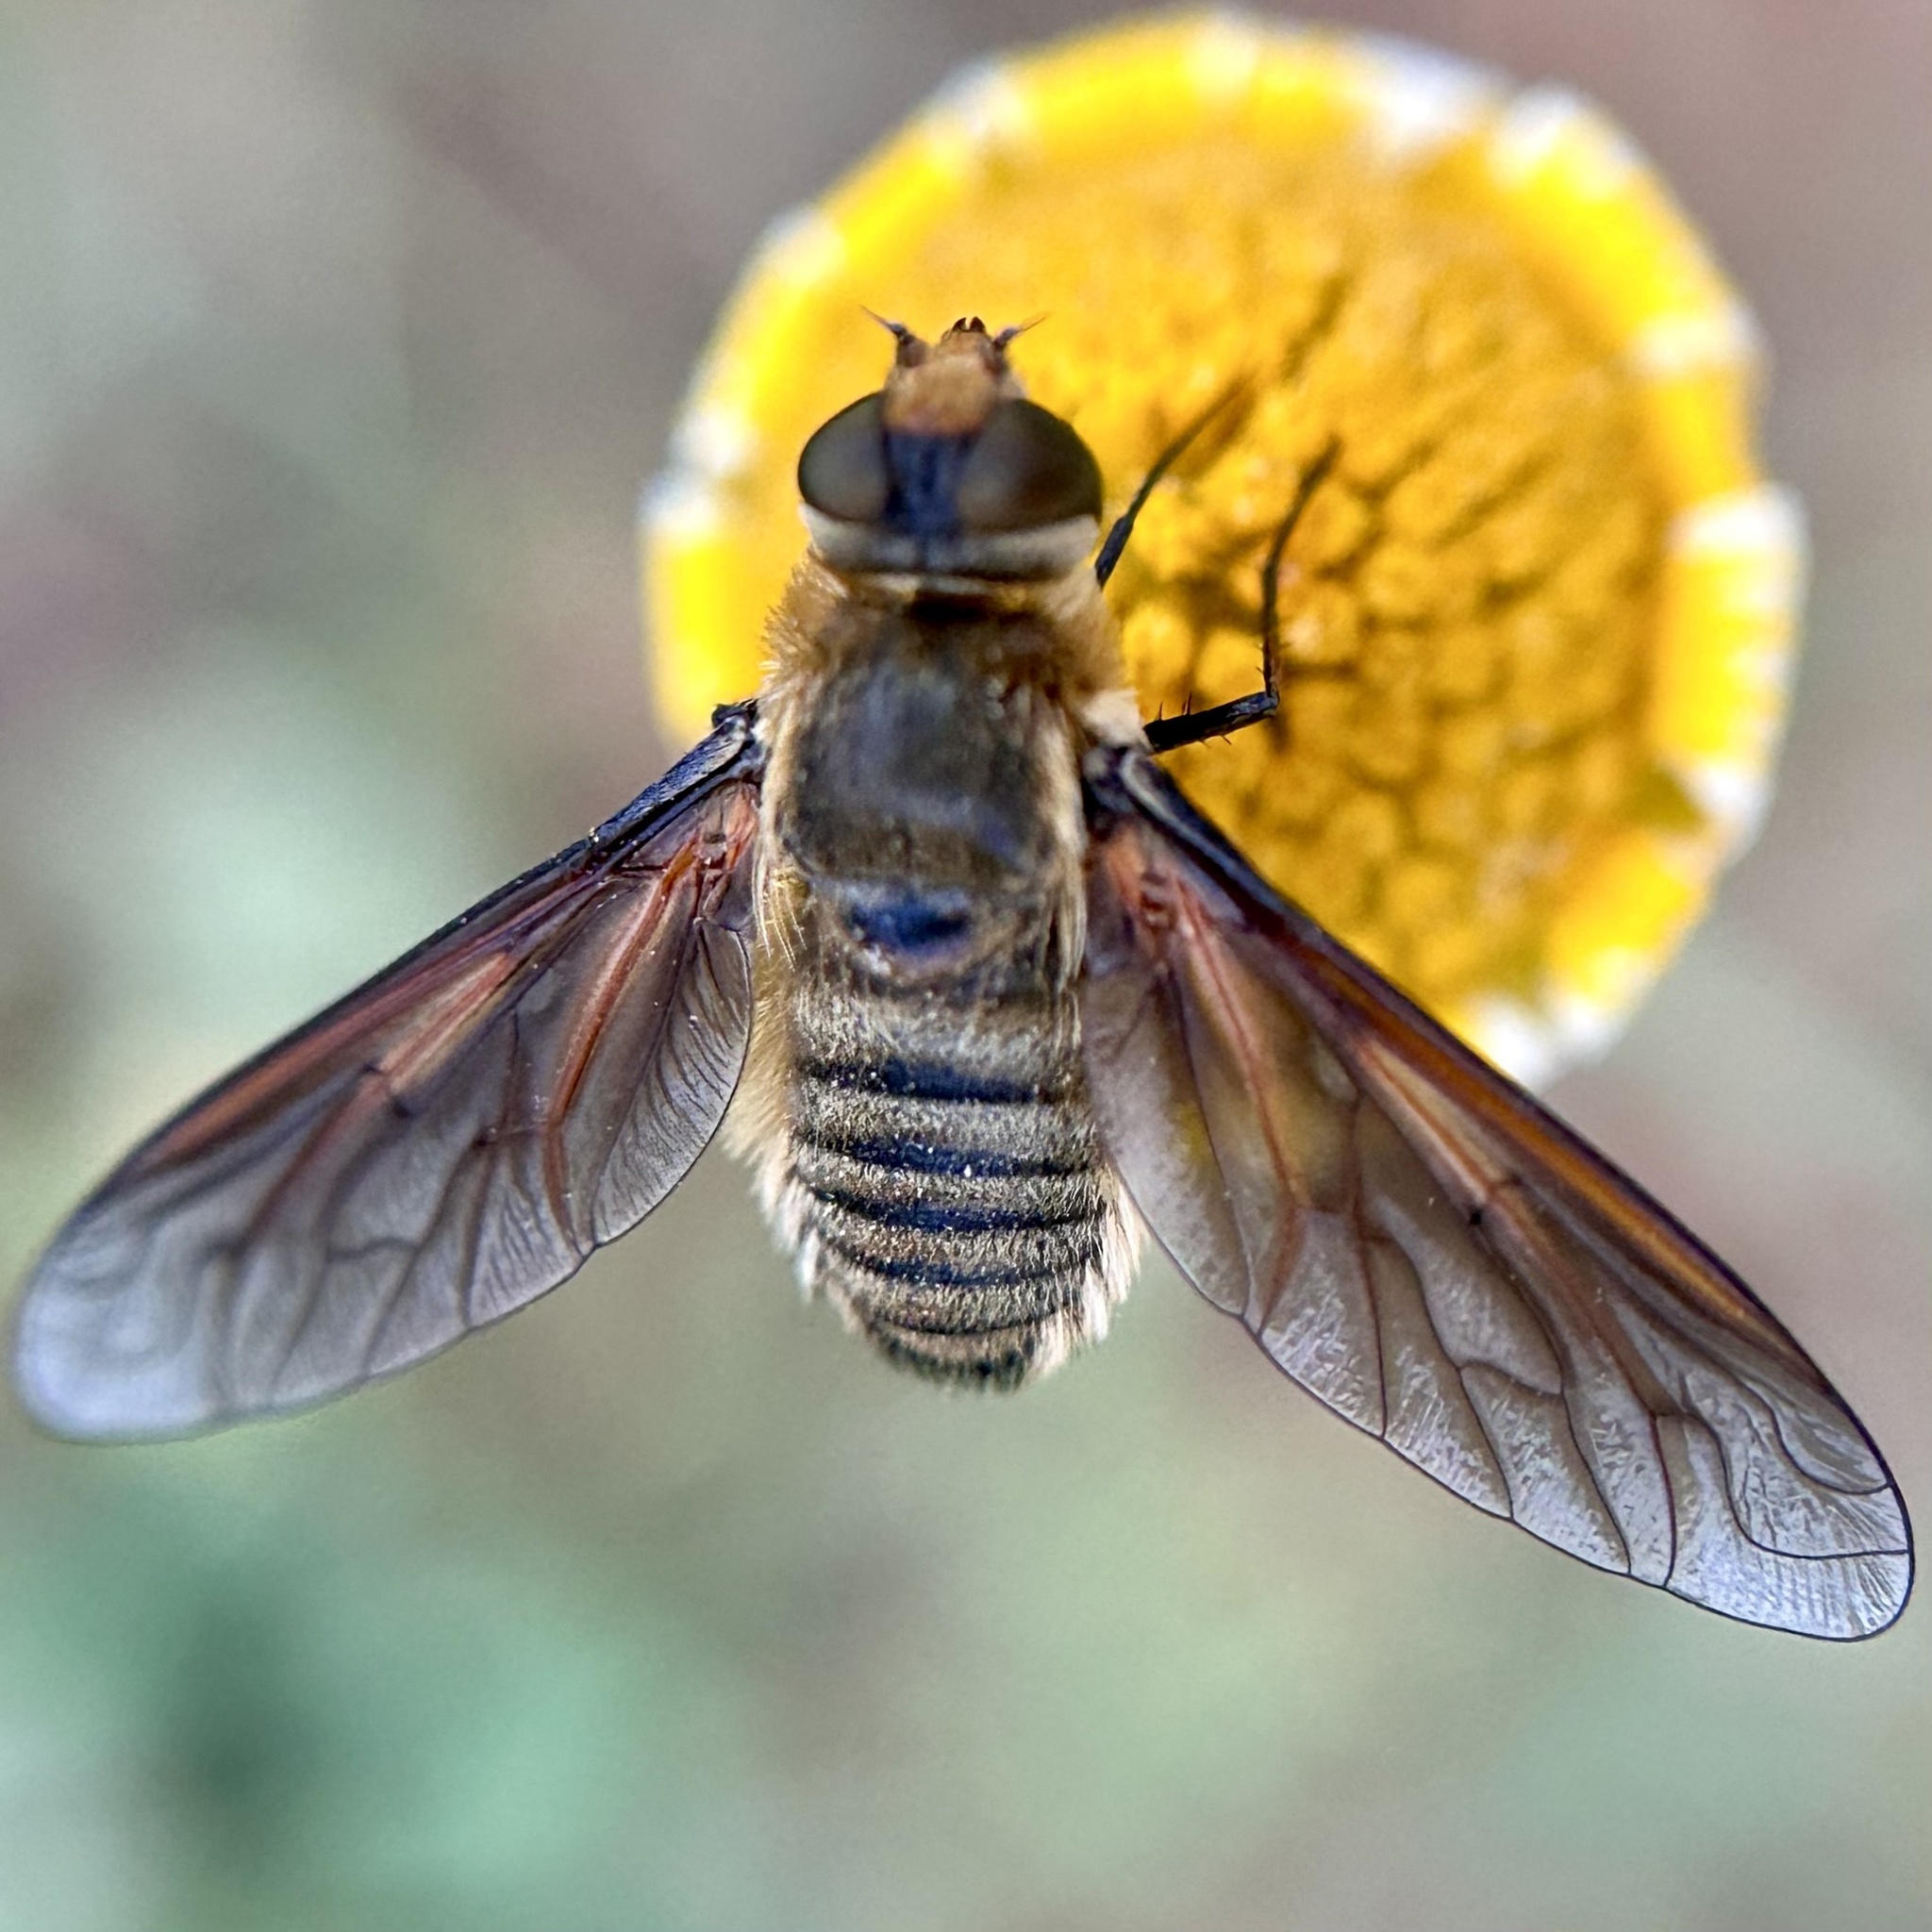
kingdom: Animalia
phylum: Arthropoda
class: Insecta
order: Diptera
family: Bombyliidae
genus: Poecilanthrax
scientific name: Poecilanthrax lucifer
